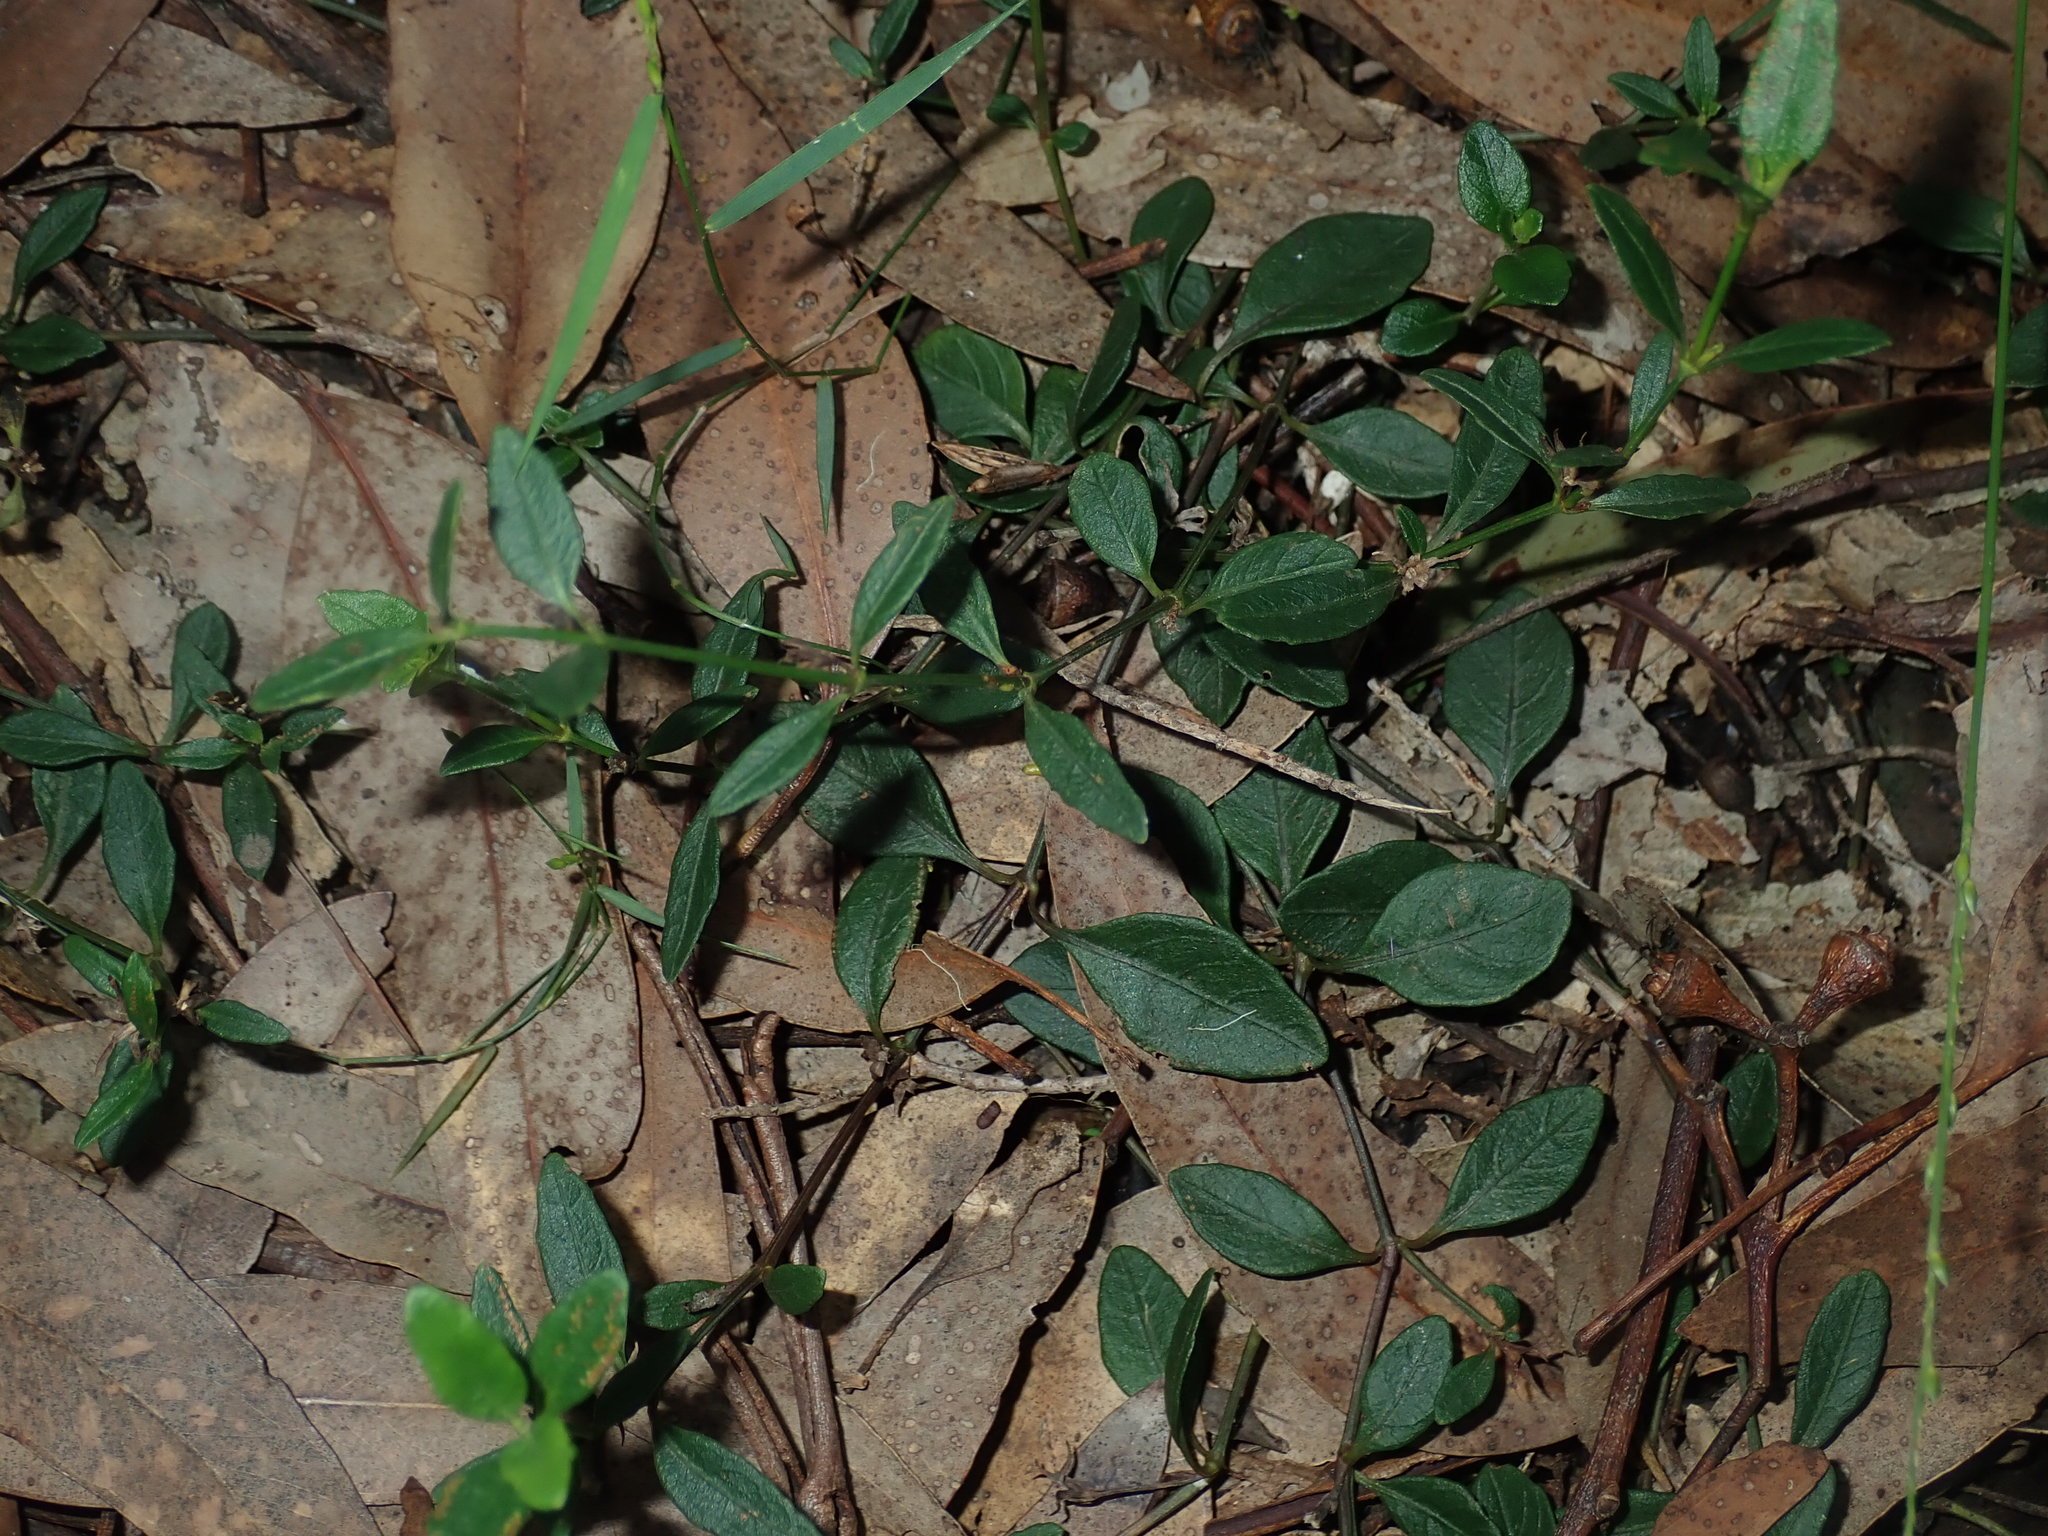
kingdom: Plantae
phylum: Tracheophyta
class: Magnoliopsida
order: Lamiales
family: Acanthaceae
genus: Brunoniella
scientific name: Brunoniella pumilio
